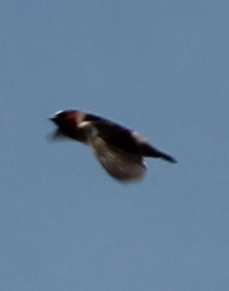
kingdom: Animalia
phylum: Chordata
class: Aves
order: Passeriformes
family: Hirundinidae
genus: Petrochelidon
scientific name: Petrochelidon pyrrhonota
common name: American cliff swallow
